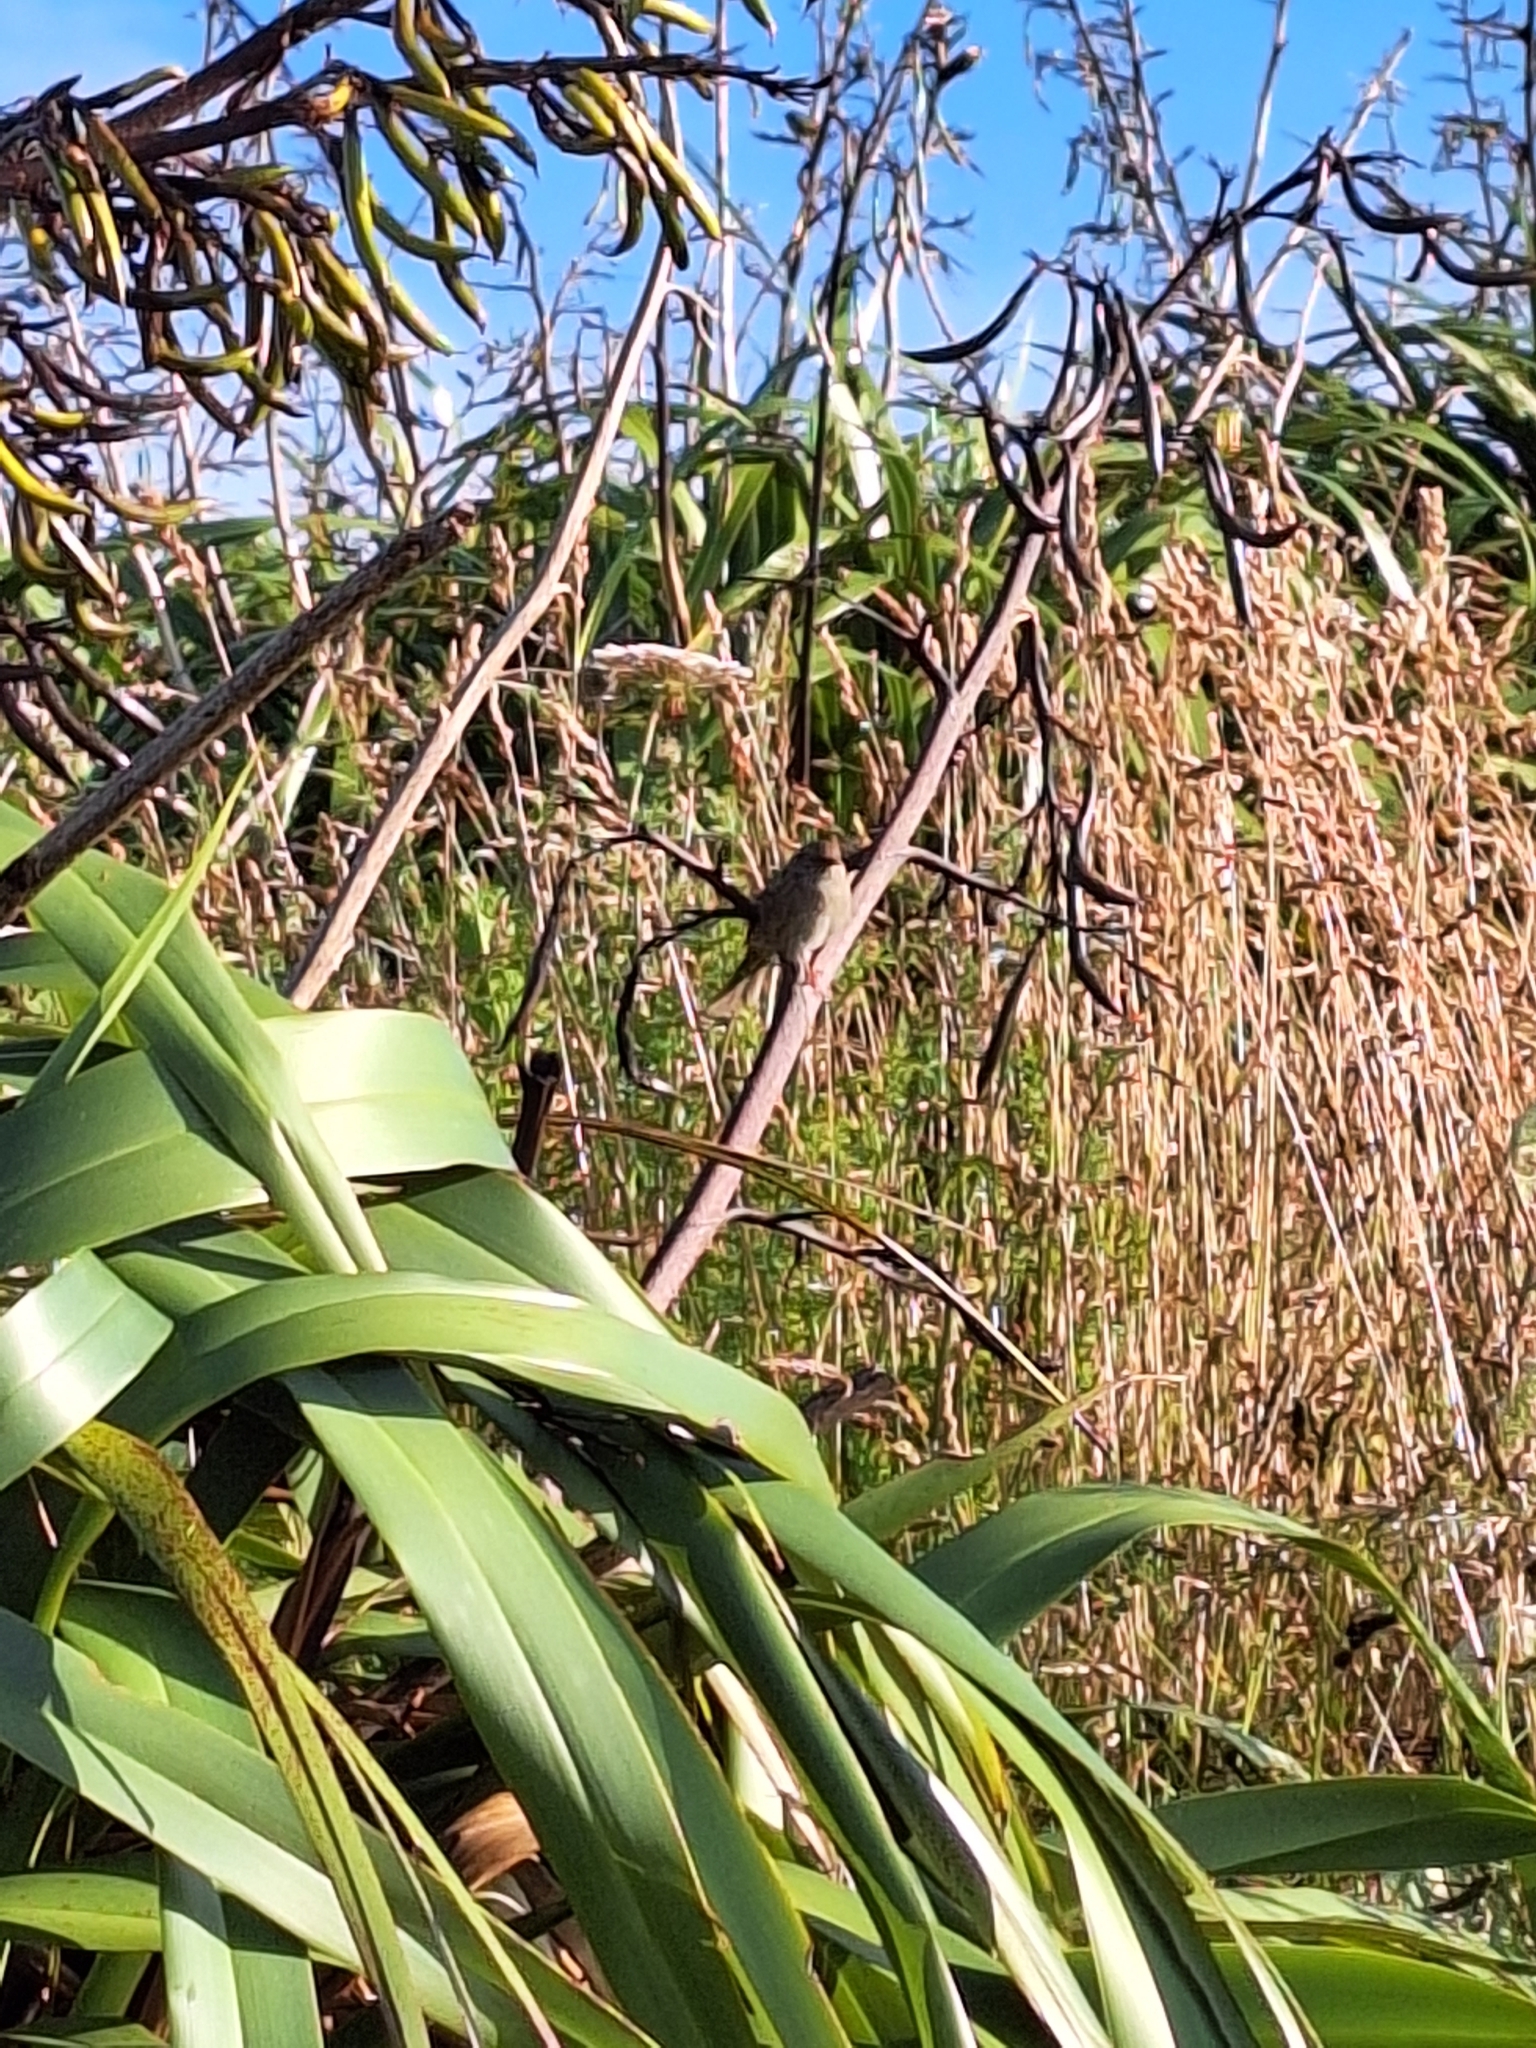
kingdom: Animalia
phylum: Chordata
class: Aves
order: Passeriformes
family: Prunellidae
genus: Prunella
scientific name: Prunella modularis
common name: Dunnock
